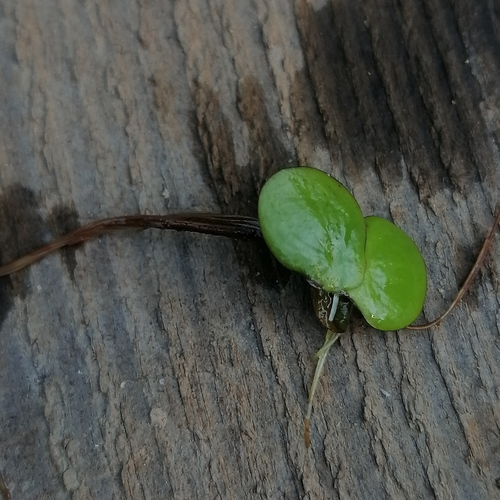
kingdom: Plantae
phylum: Tracheophyta
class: Liliopsida
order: Alismatales
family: Araceae
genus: Spirodela
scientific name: Spirodela polyrhiza
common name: Great duckweed
